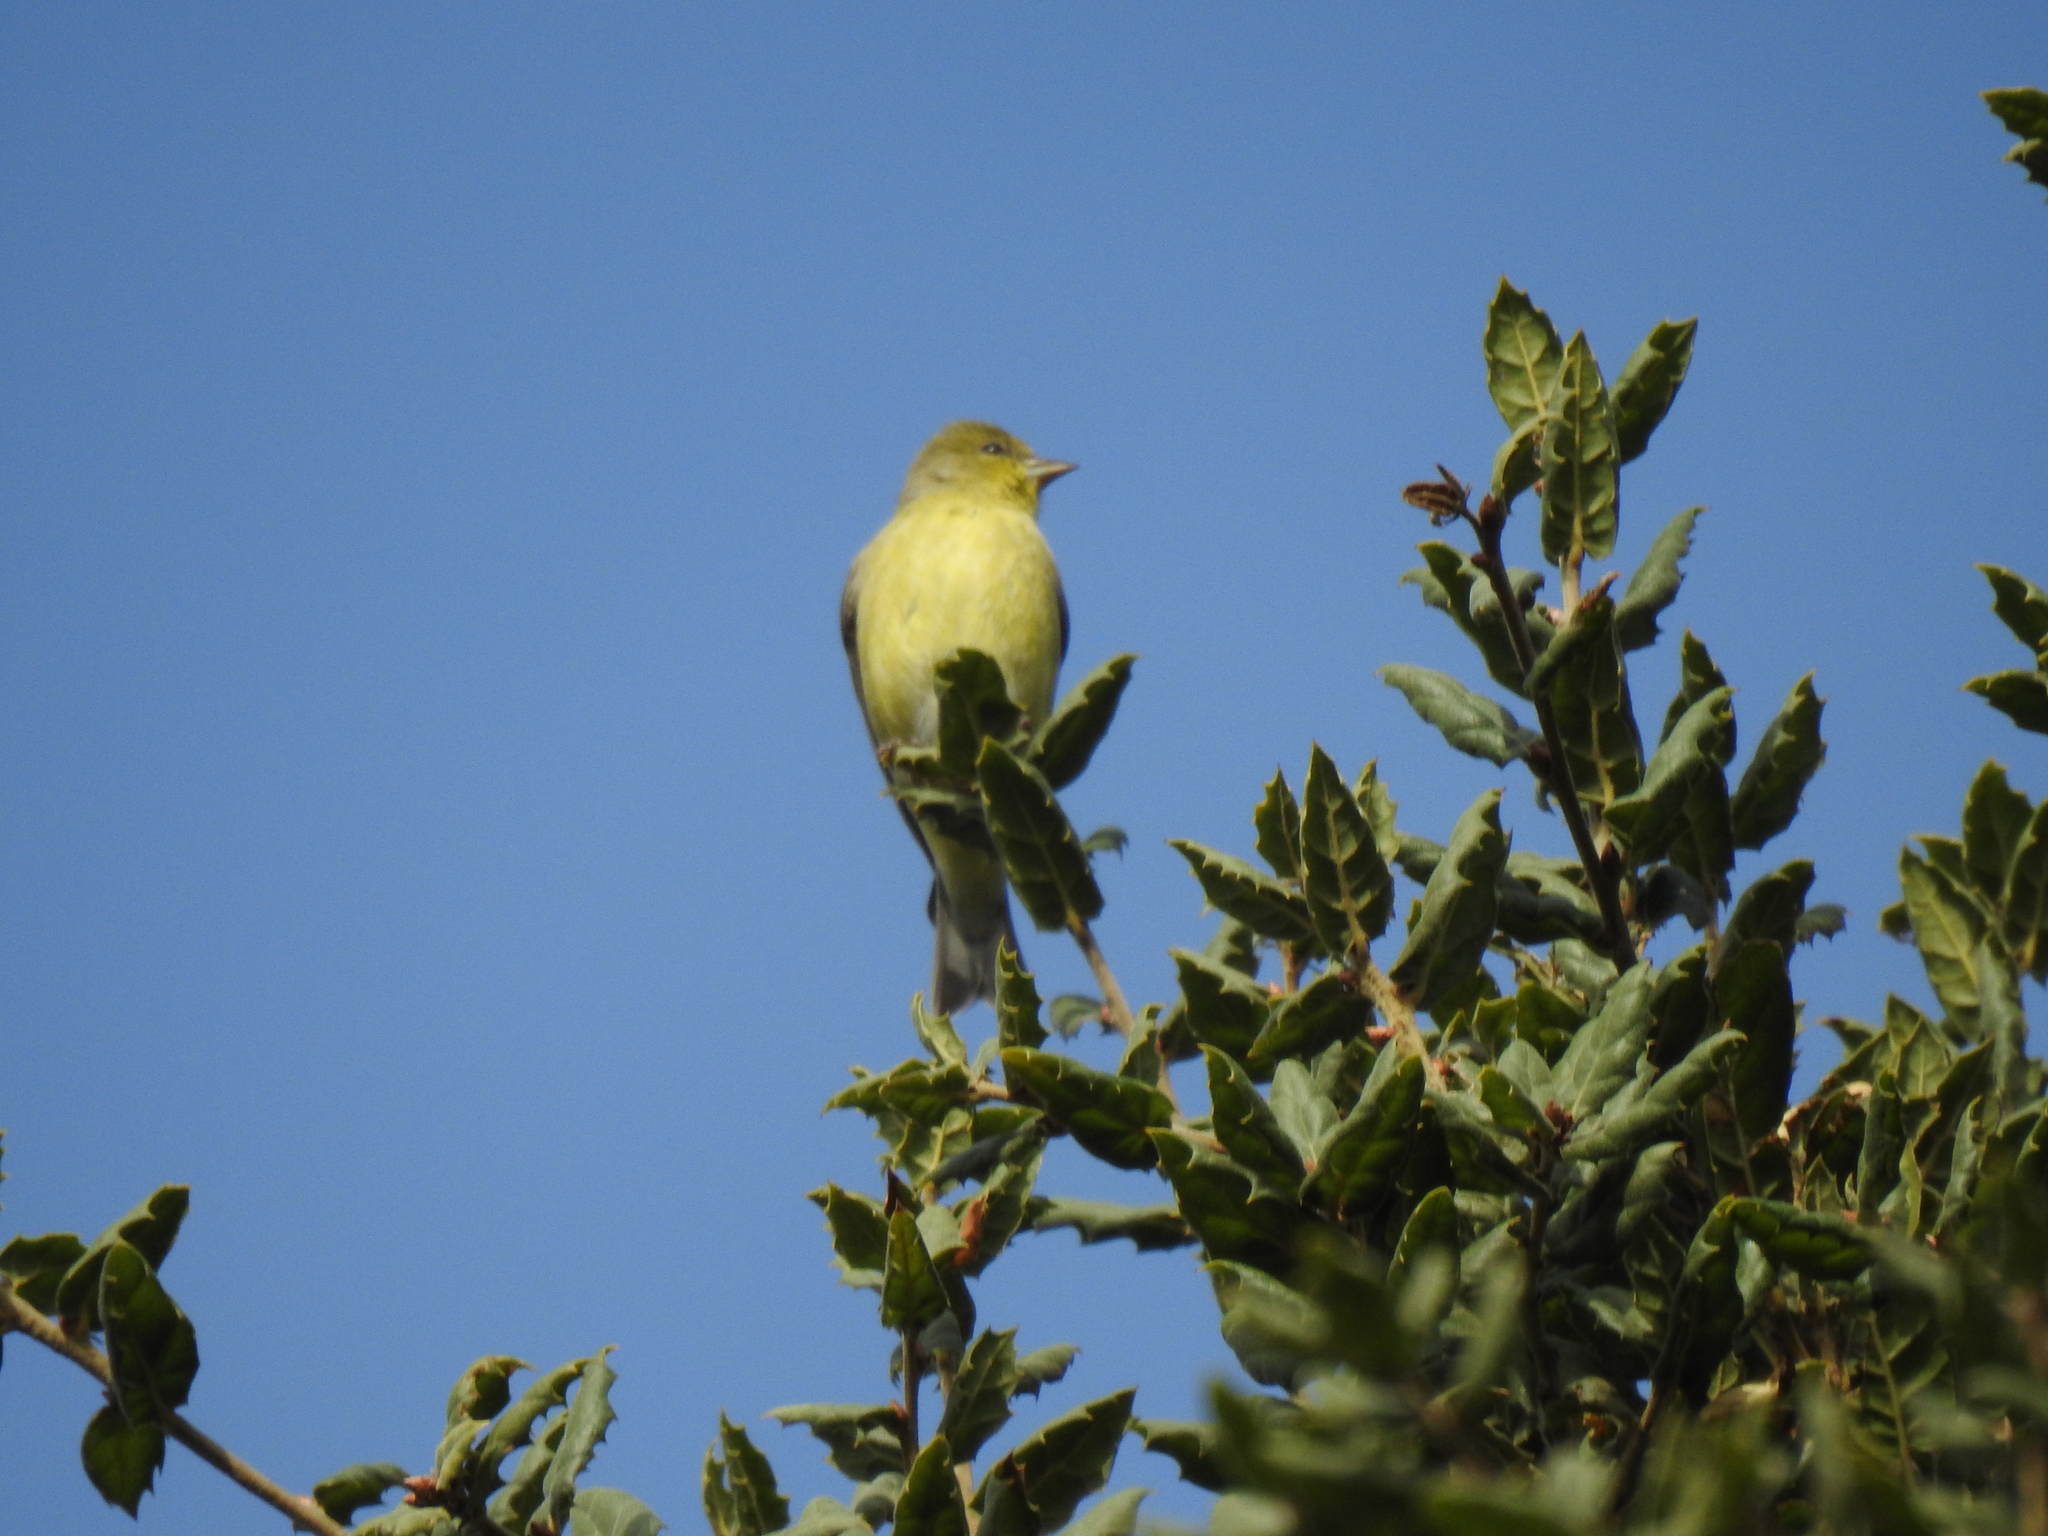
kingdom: Animalia
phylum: Chordata
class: Aves
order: Passeriformes
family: Fringillidae
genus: Spinus
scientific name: Spinus psaltria
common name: Lesser goldfinch
